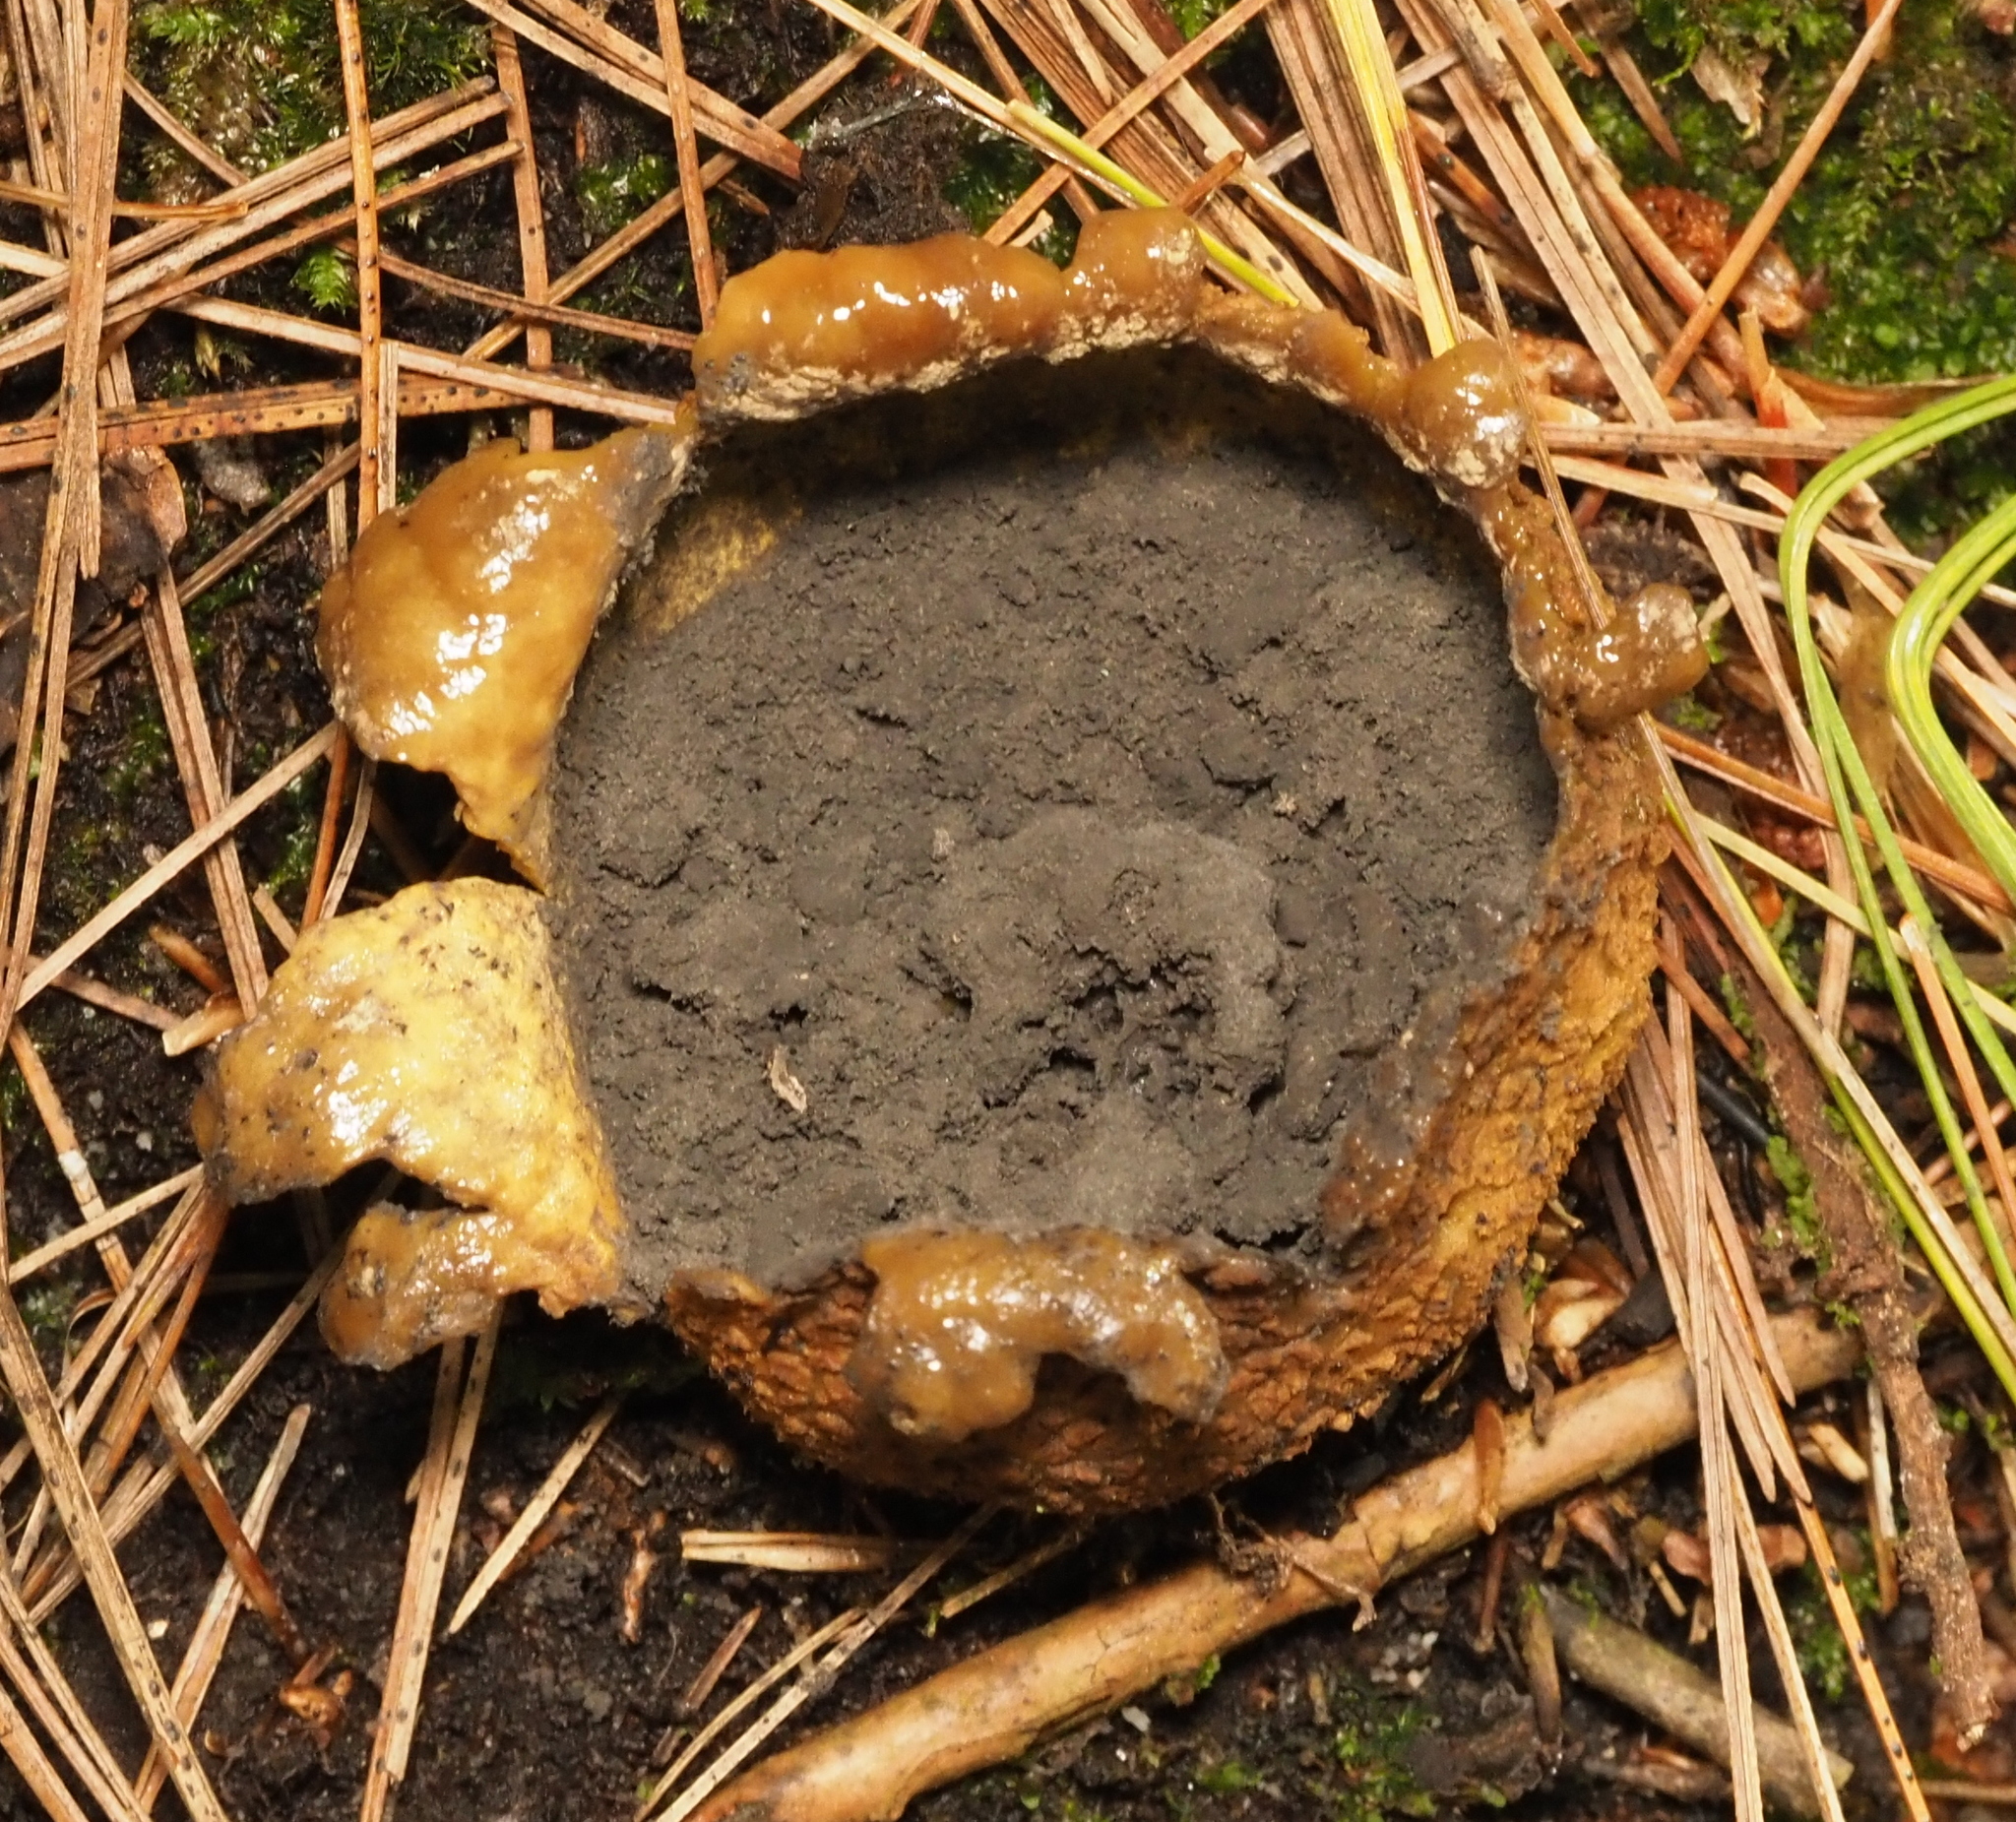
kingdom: Fungi
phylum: Basidiomycota
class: Agaricomycetes
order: Boletales
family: Sclerodermataceae
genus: Scleroderma
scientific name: Scleroderma citrinum
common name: Common earthball
